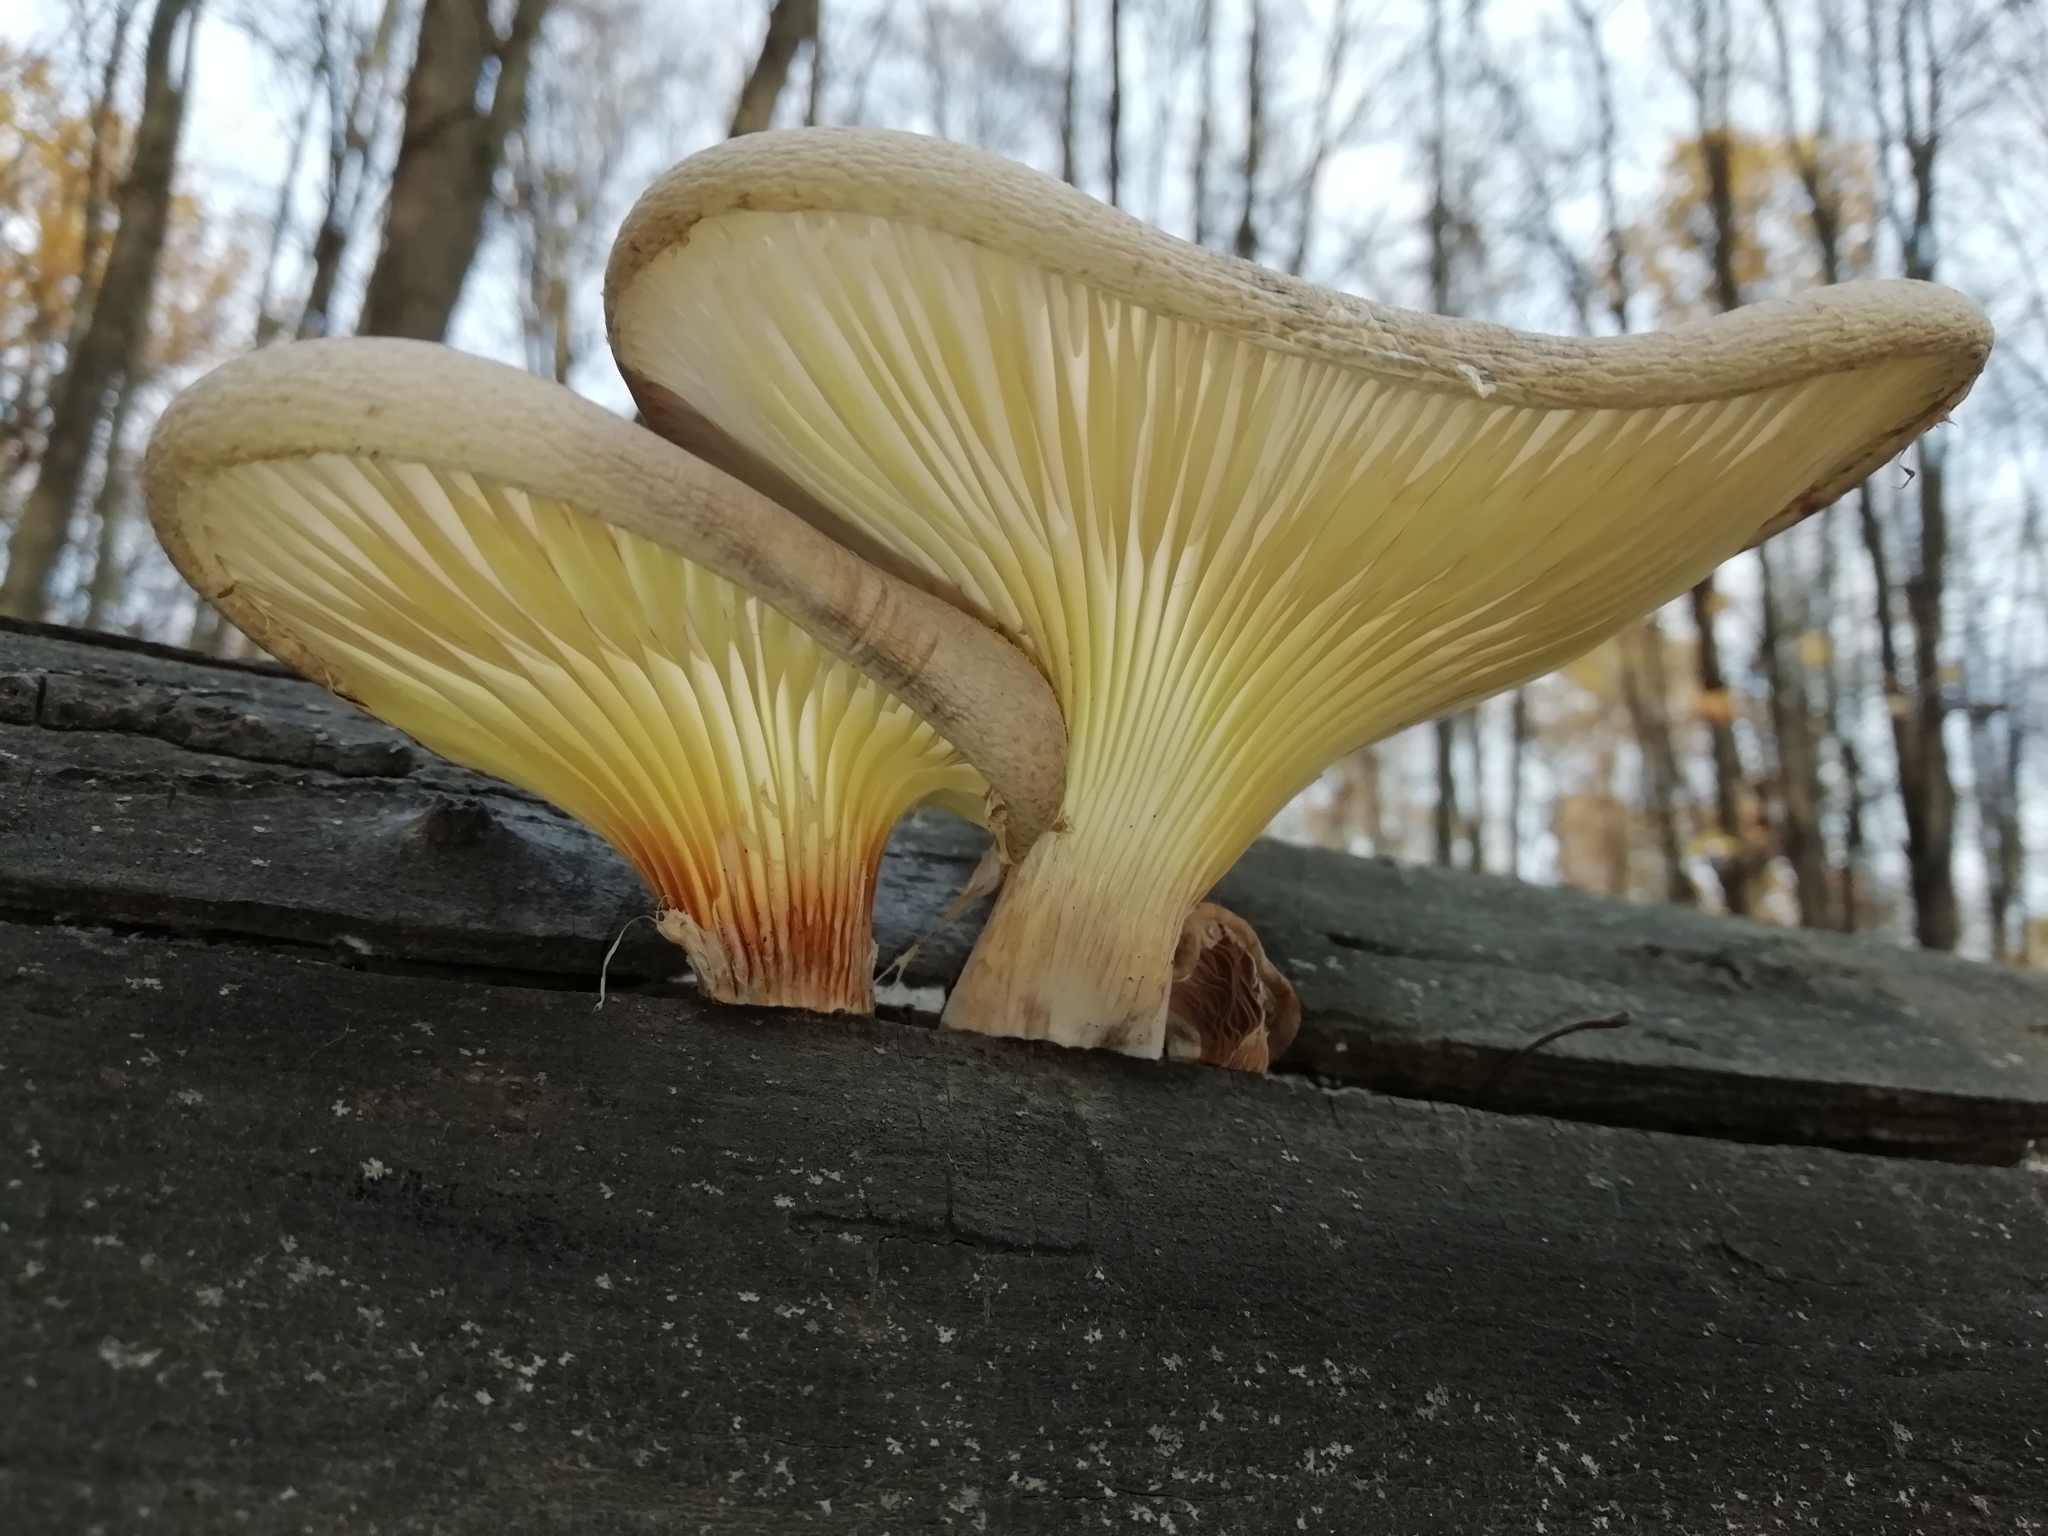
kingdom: Fungi
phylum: Basidiomycota
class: Agaricomycetes
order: Agaricales
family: Pleurotaceae
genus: Pleurotus
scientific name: Pleurotus dryinus
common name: Veiled oyster
